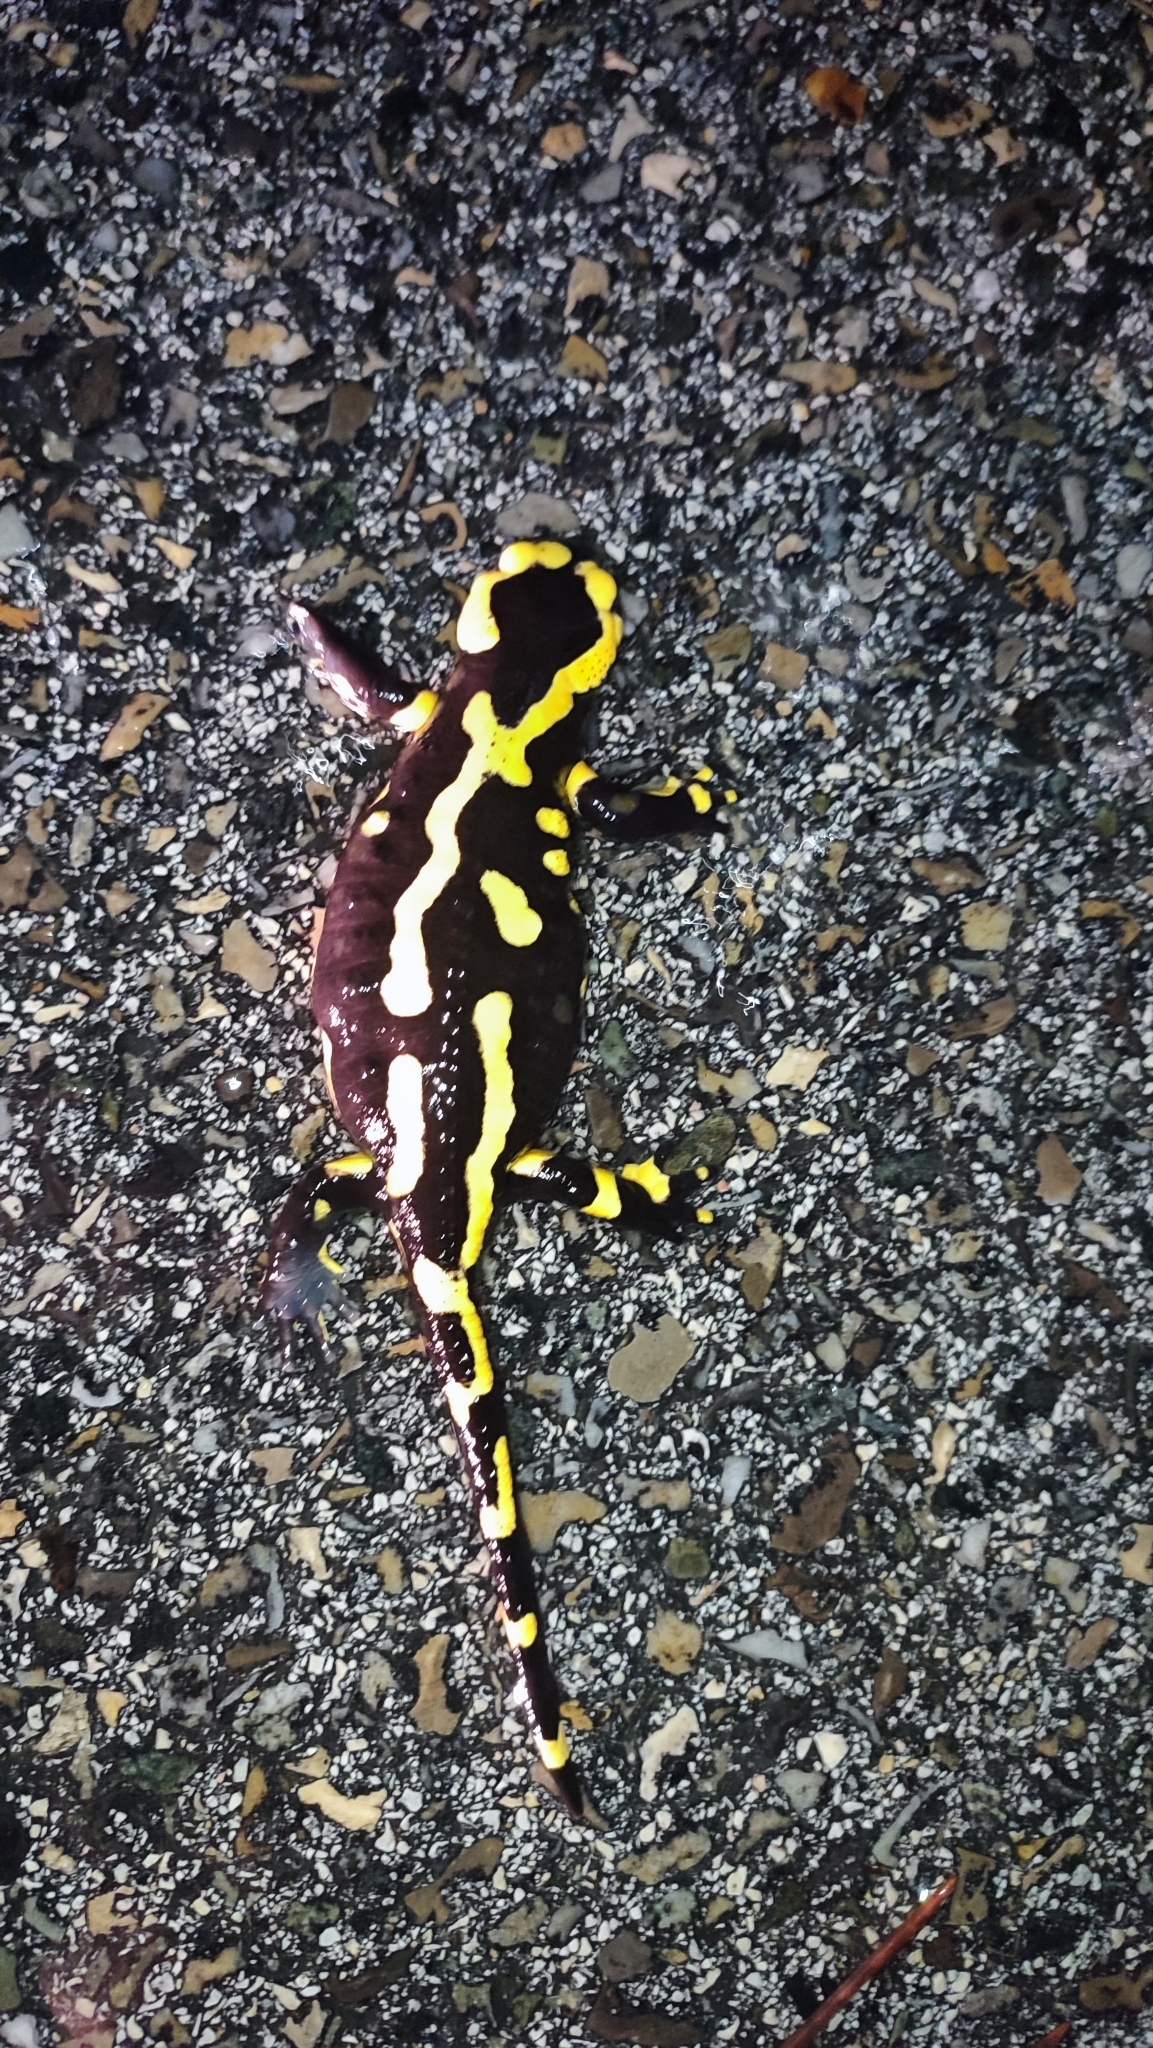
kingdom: Animalia
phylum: Chordata
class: Amphibia
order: Caudata
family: Salamandridae
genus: Salamandra
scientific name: Salamandra salamandra
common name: Fire salamander
